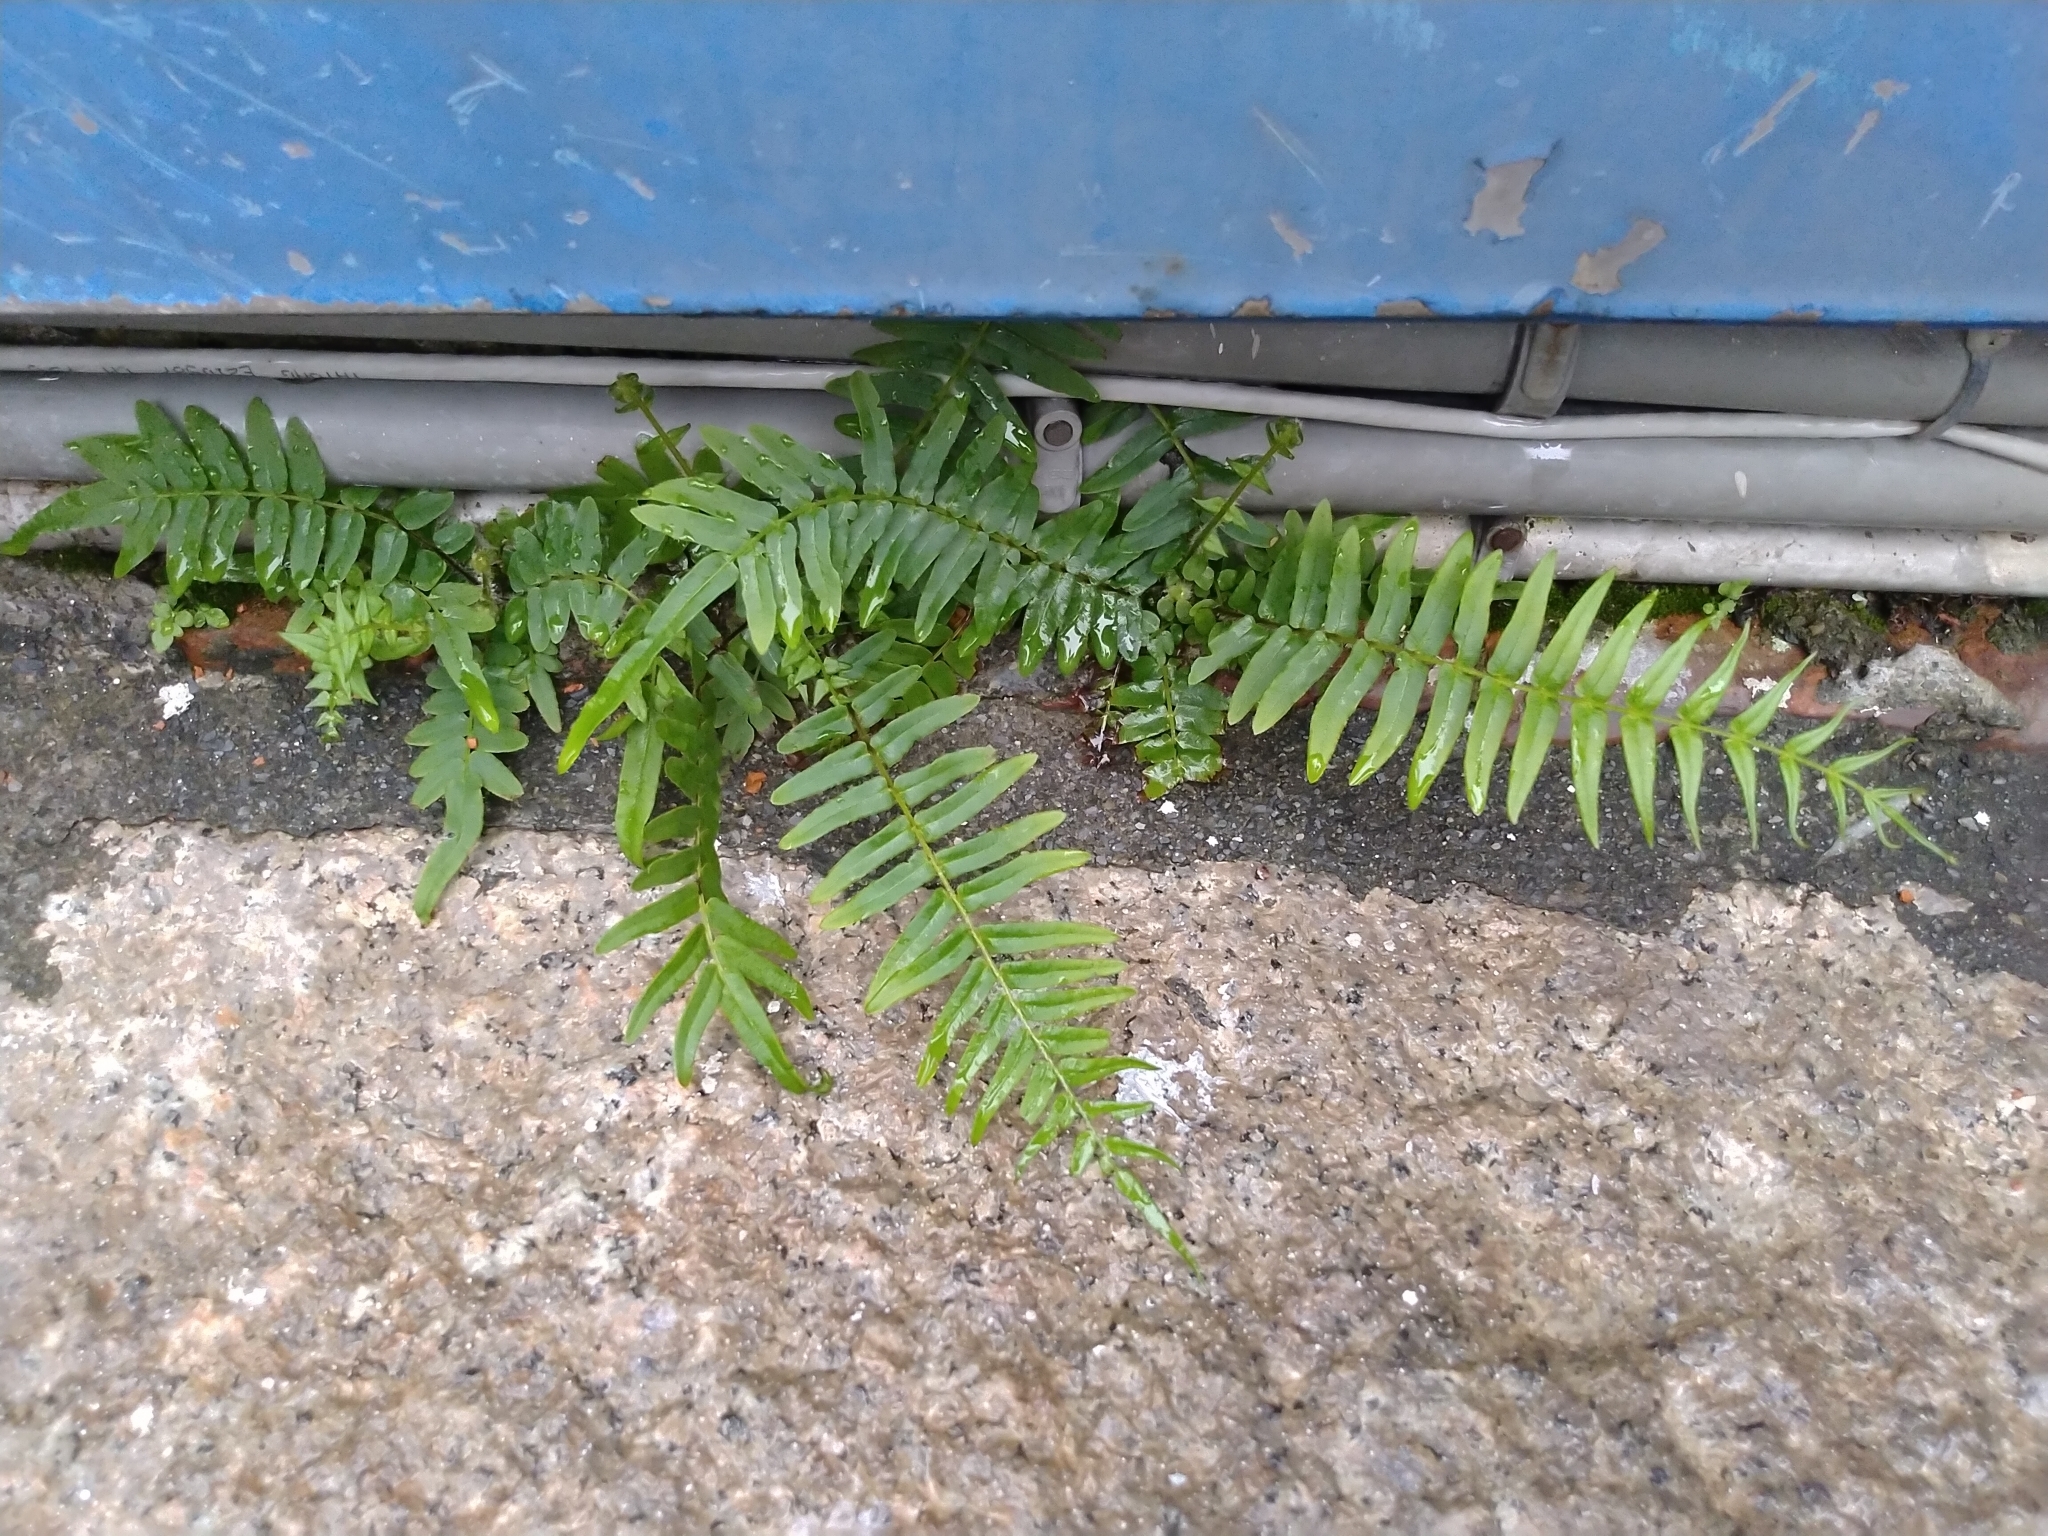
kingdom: Plantae
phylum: Tracheophyta
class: Polypodiopsida
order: Polypodiales
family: Pteridaceae
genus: Pteris
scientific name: Pteris vittata
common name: Ladder brake
